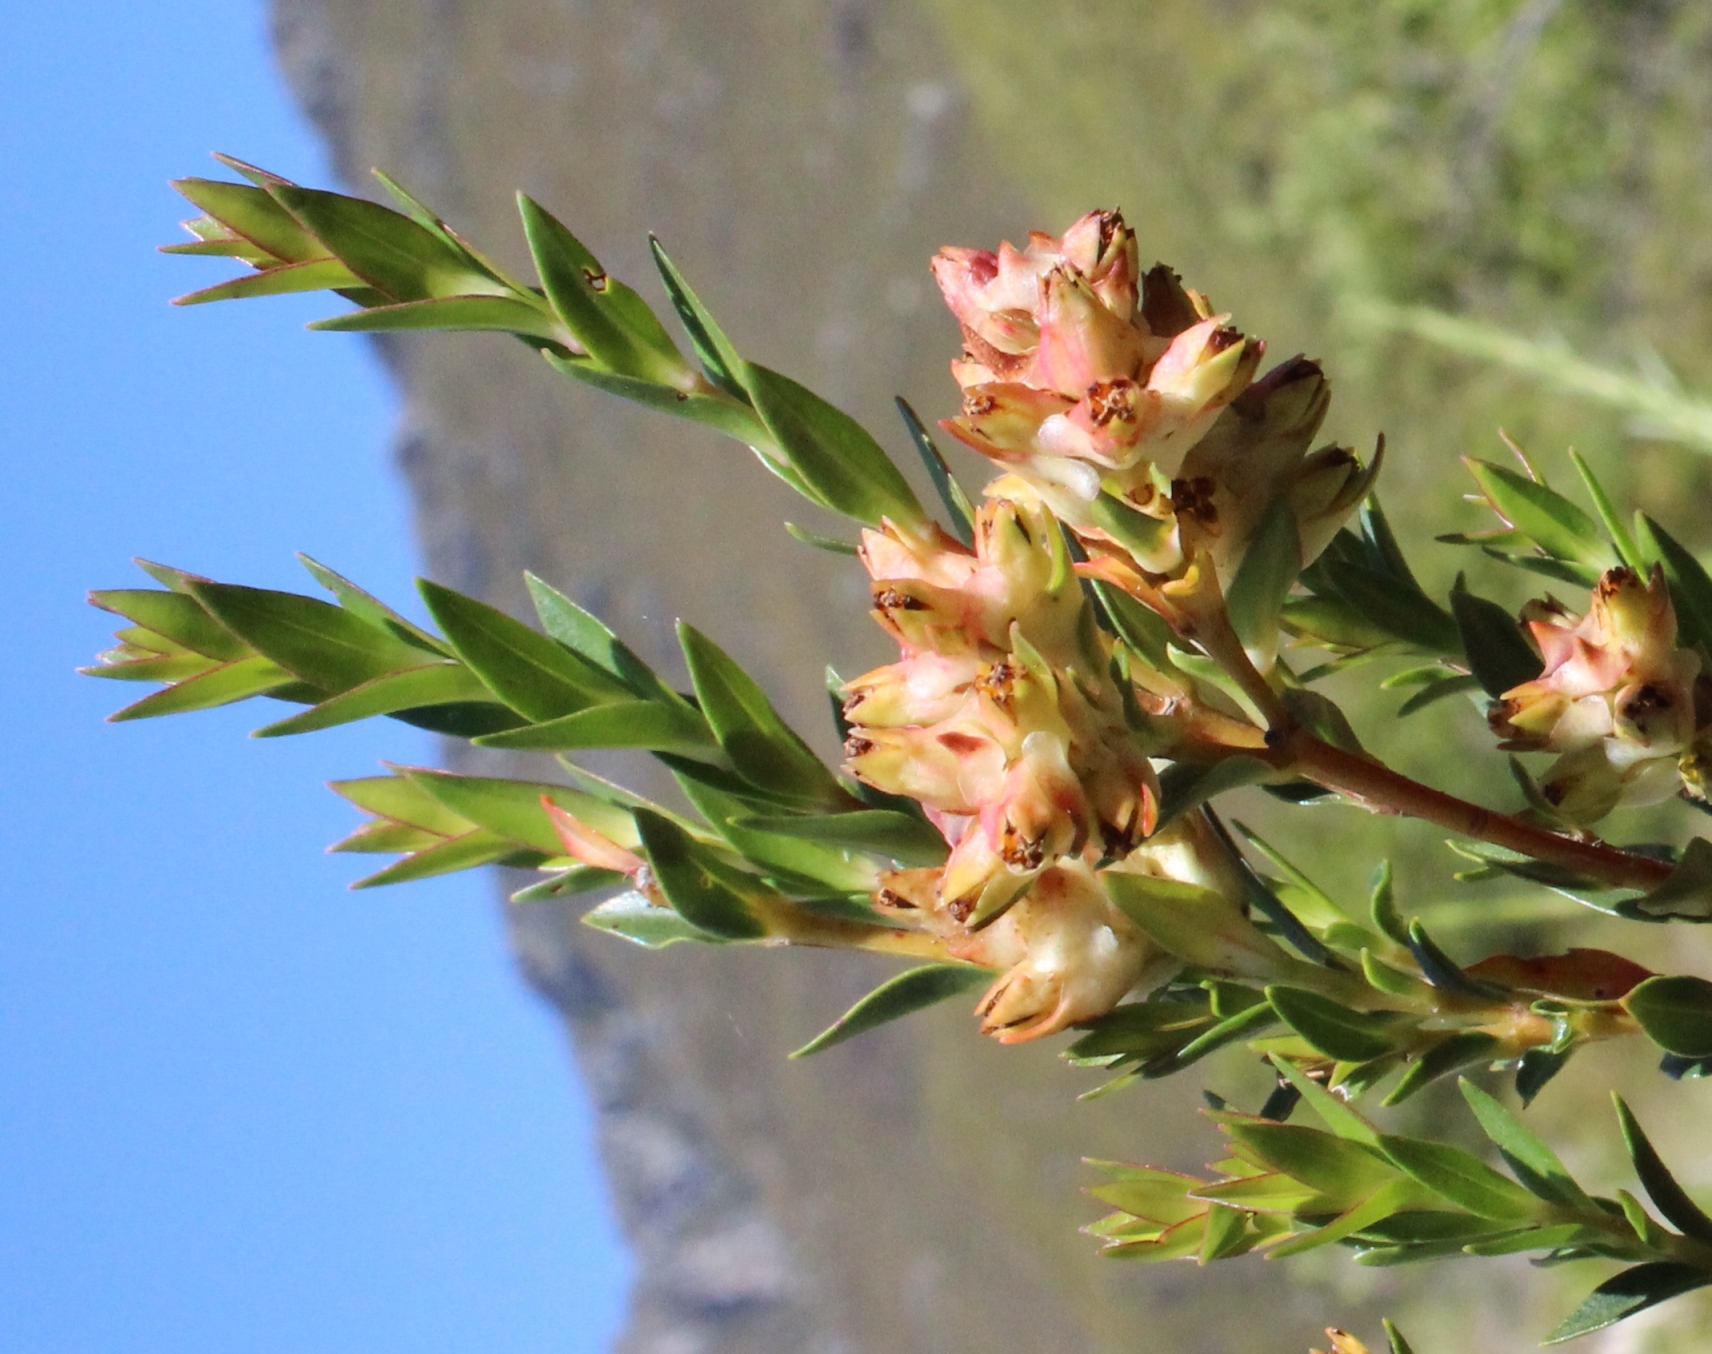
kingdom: Plantae
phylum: Tracheophyta
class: Magnoliopsida
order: Myrtales
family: Penaeaceae
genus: Penaea
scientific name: Penaea cneorum
